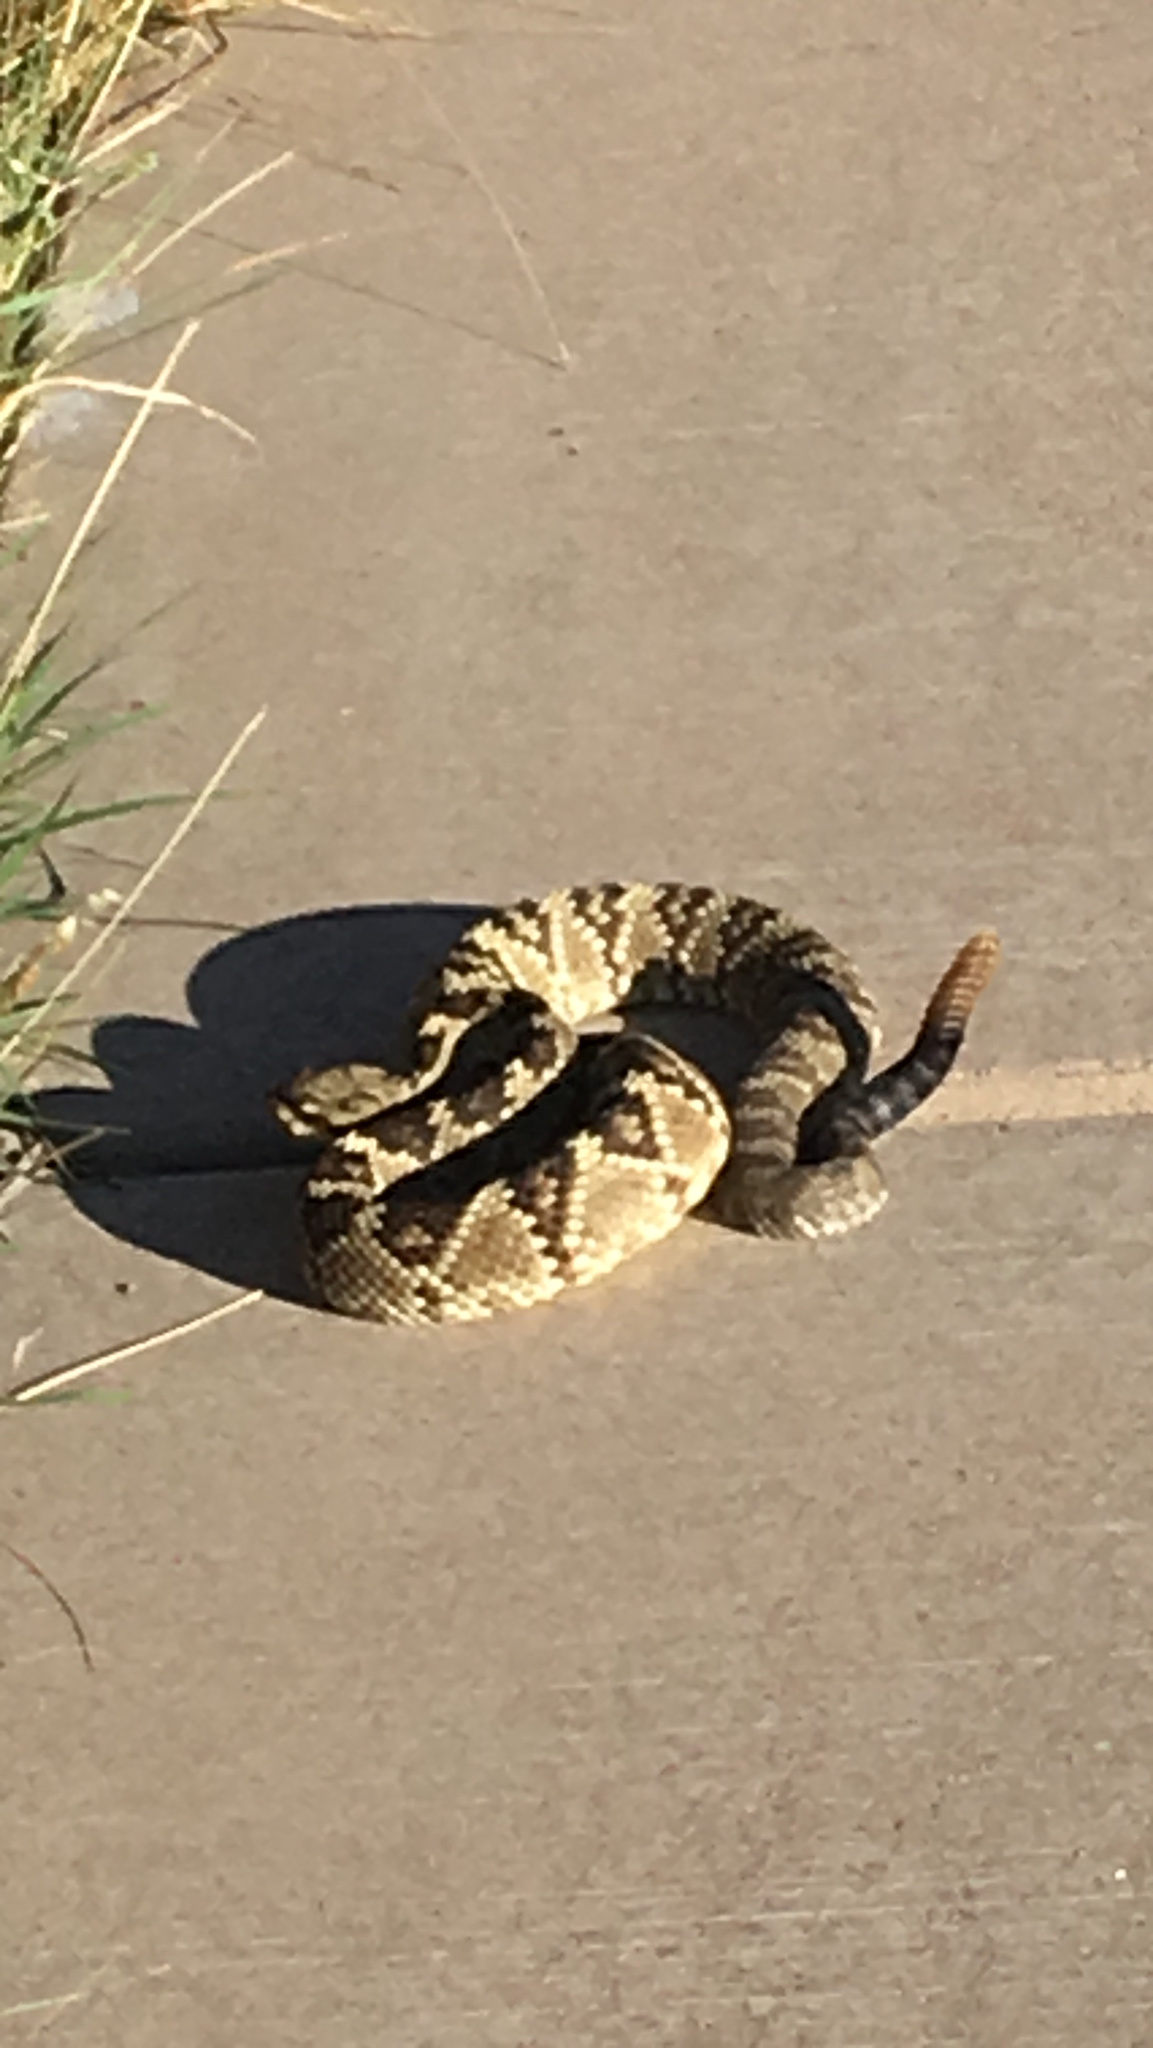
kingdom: Animalia
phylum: Chordata
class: Squamata
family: Viperidae
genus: Crotalus
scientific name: Crotalus molossus
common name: Black tailed rattlesnake
